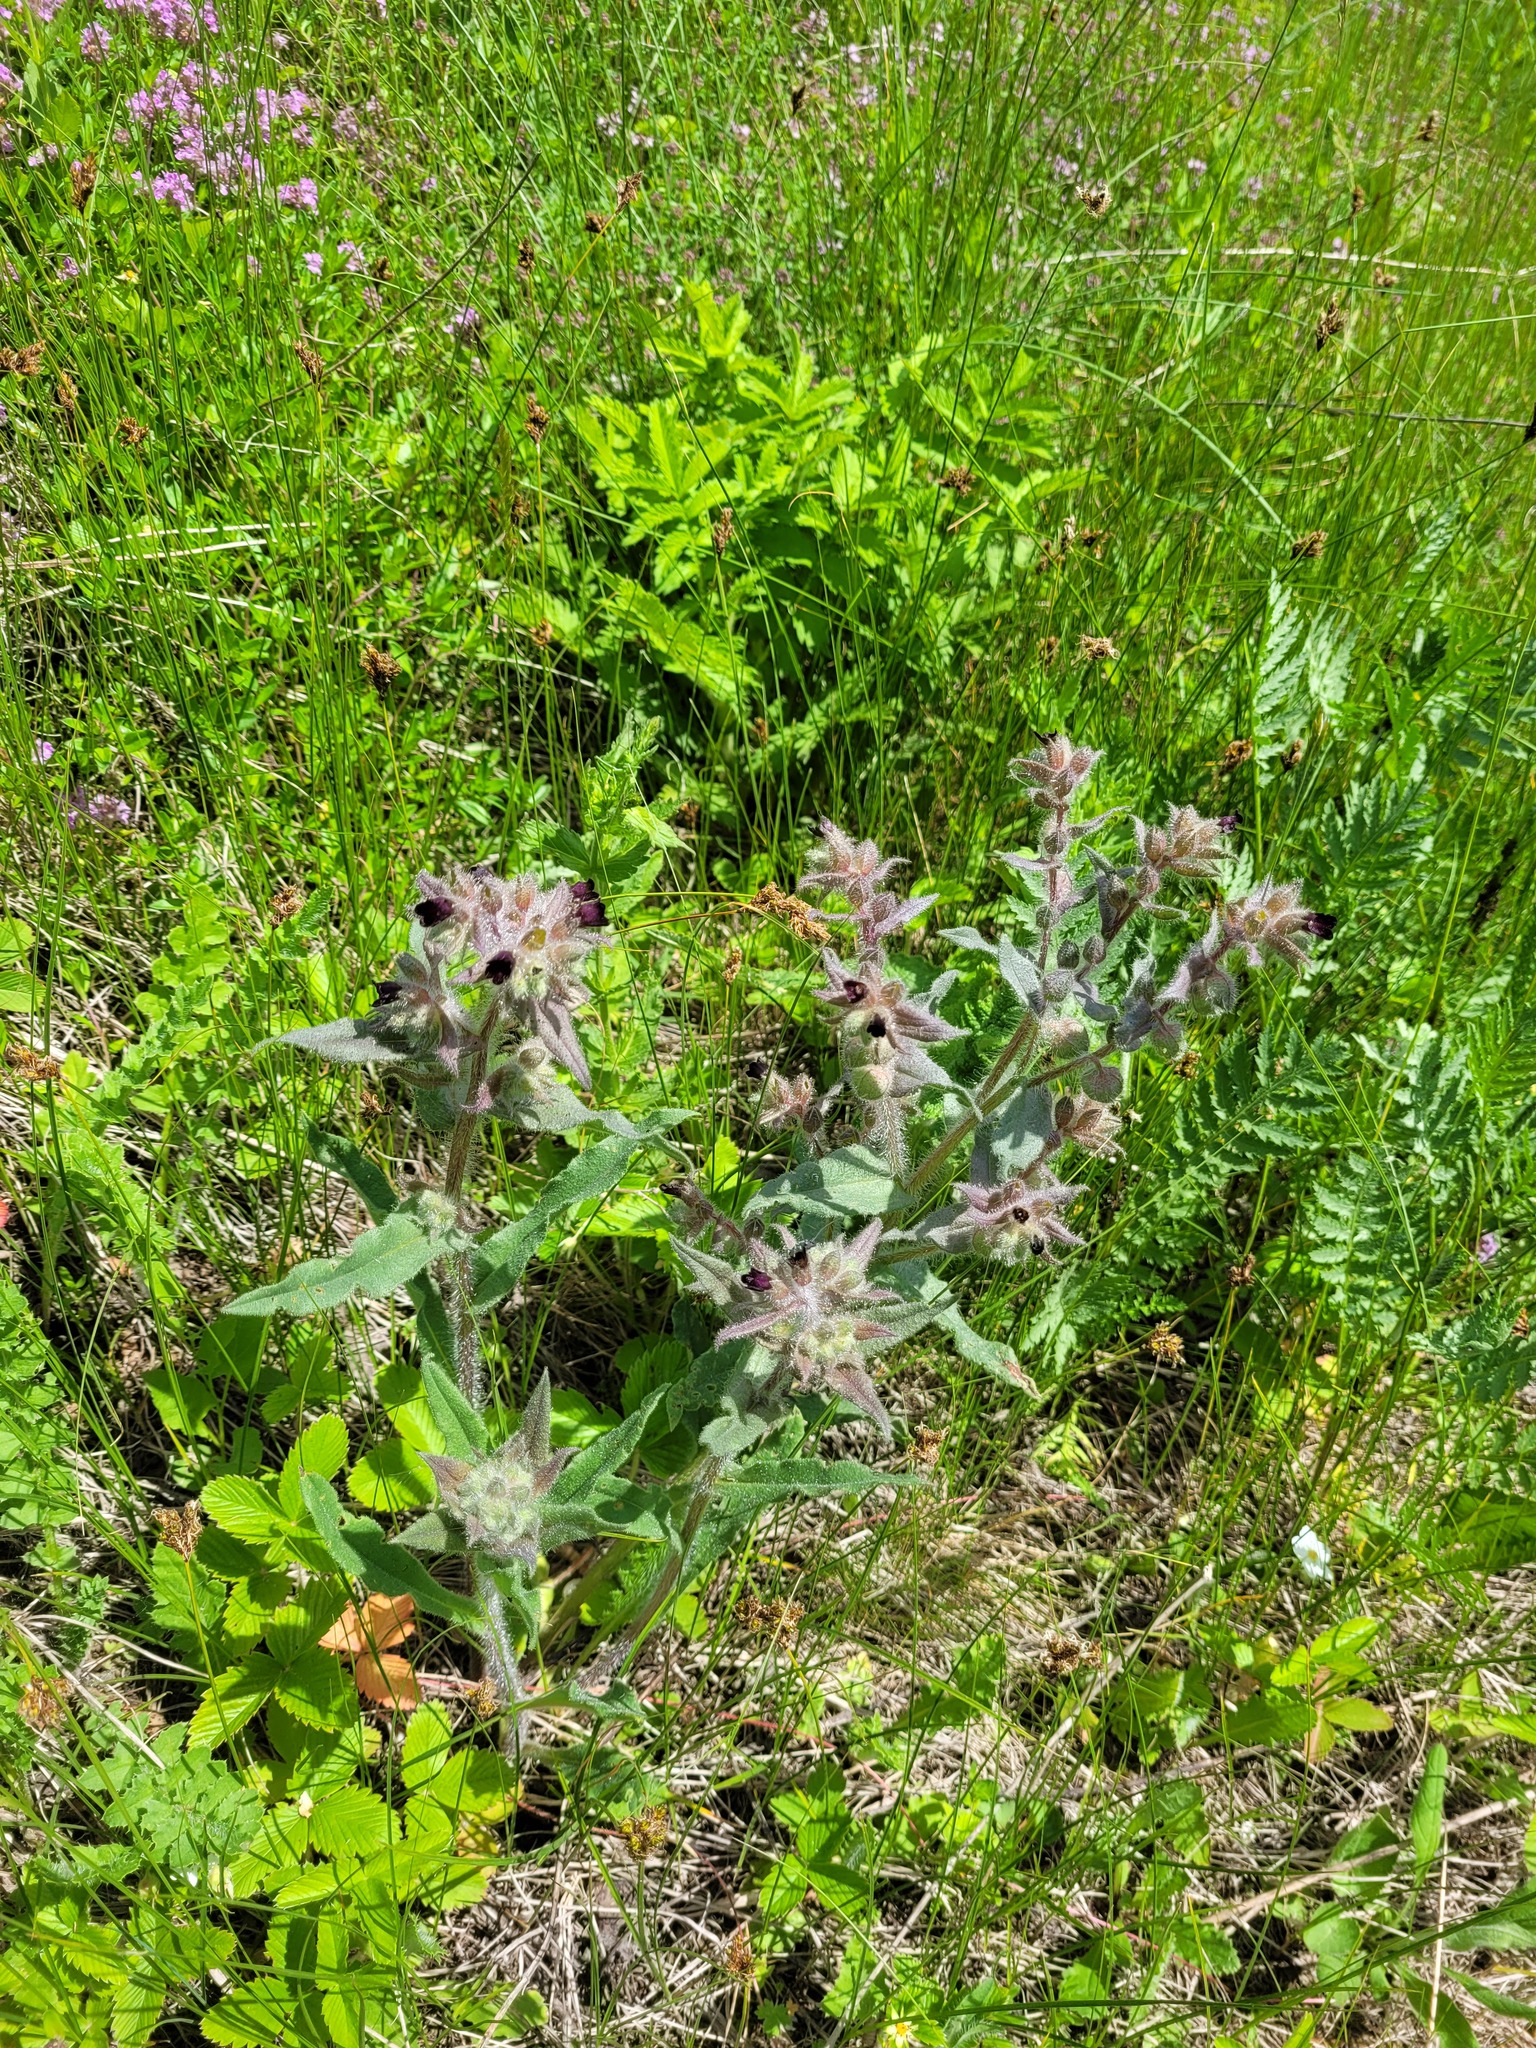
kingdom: Plantae
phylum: Tracheophyta
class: Magnoliopsida
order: Boraginales
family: Boraginaceae
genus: Nonea
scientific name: Nonea pulla
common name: Brown nonea
